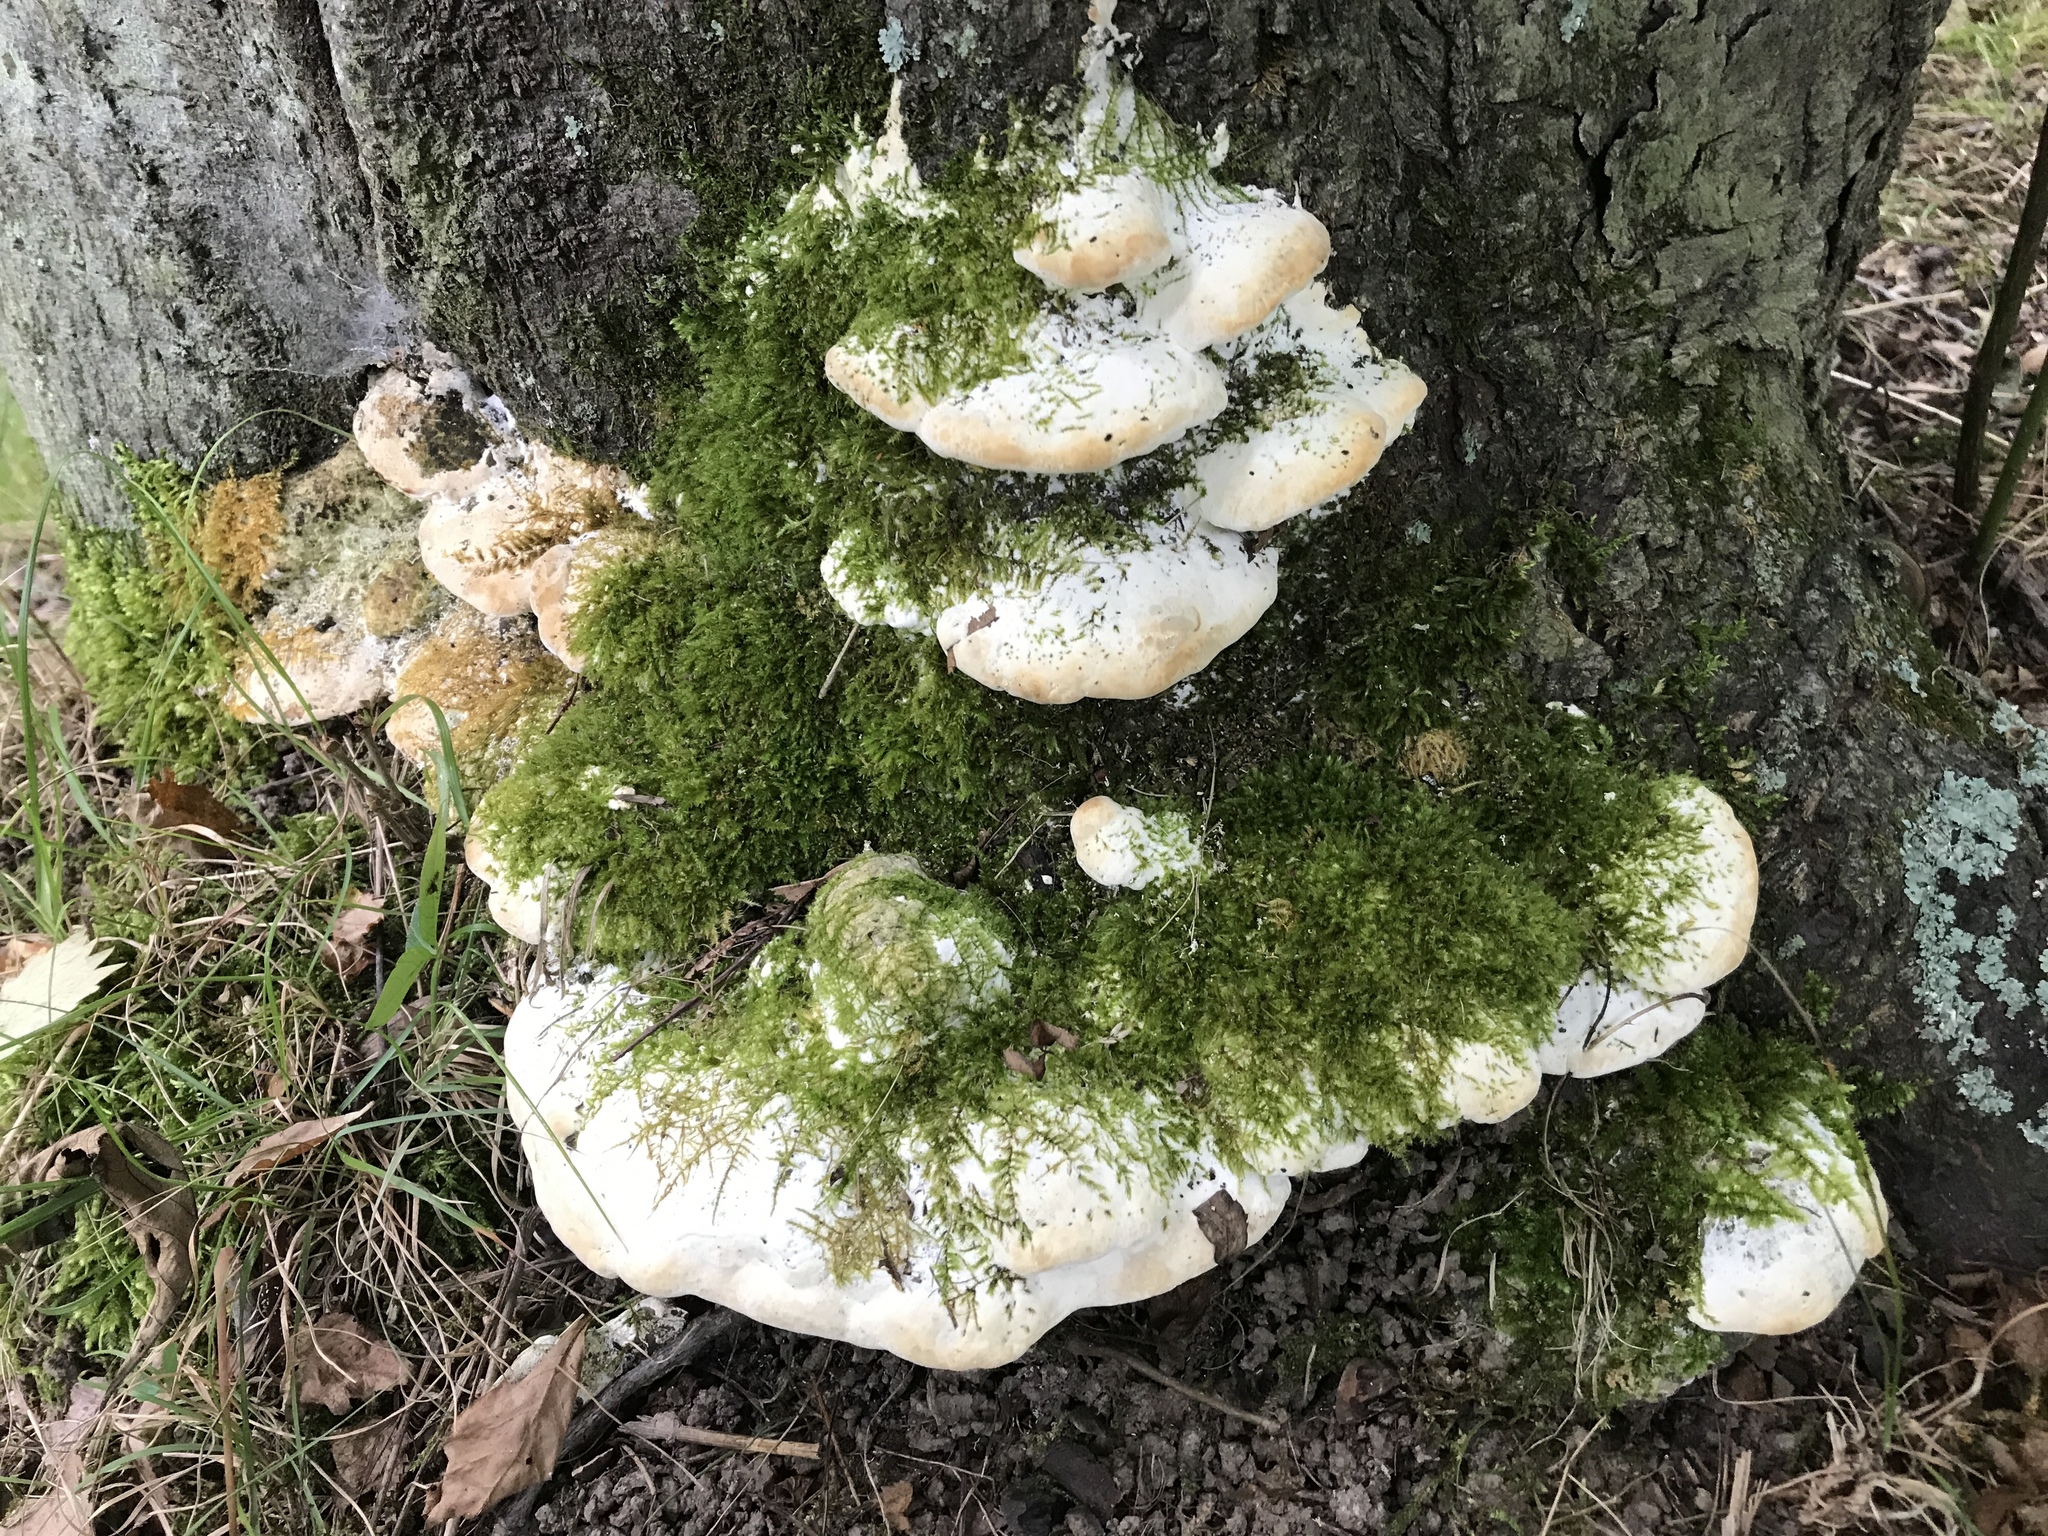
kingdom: Fungi
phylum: Basidiomycota
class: Agaricomycetes
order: Hymenochaetales
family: Oxyporaceae
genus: Oxyporus
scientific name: Oxyporus populinus
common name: Poplar bracket
